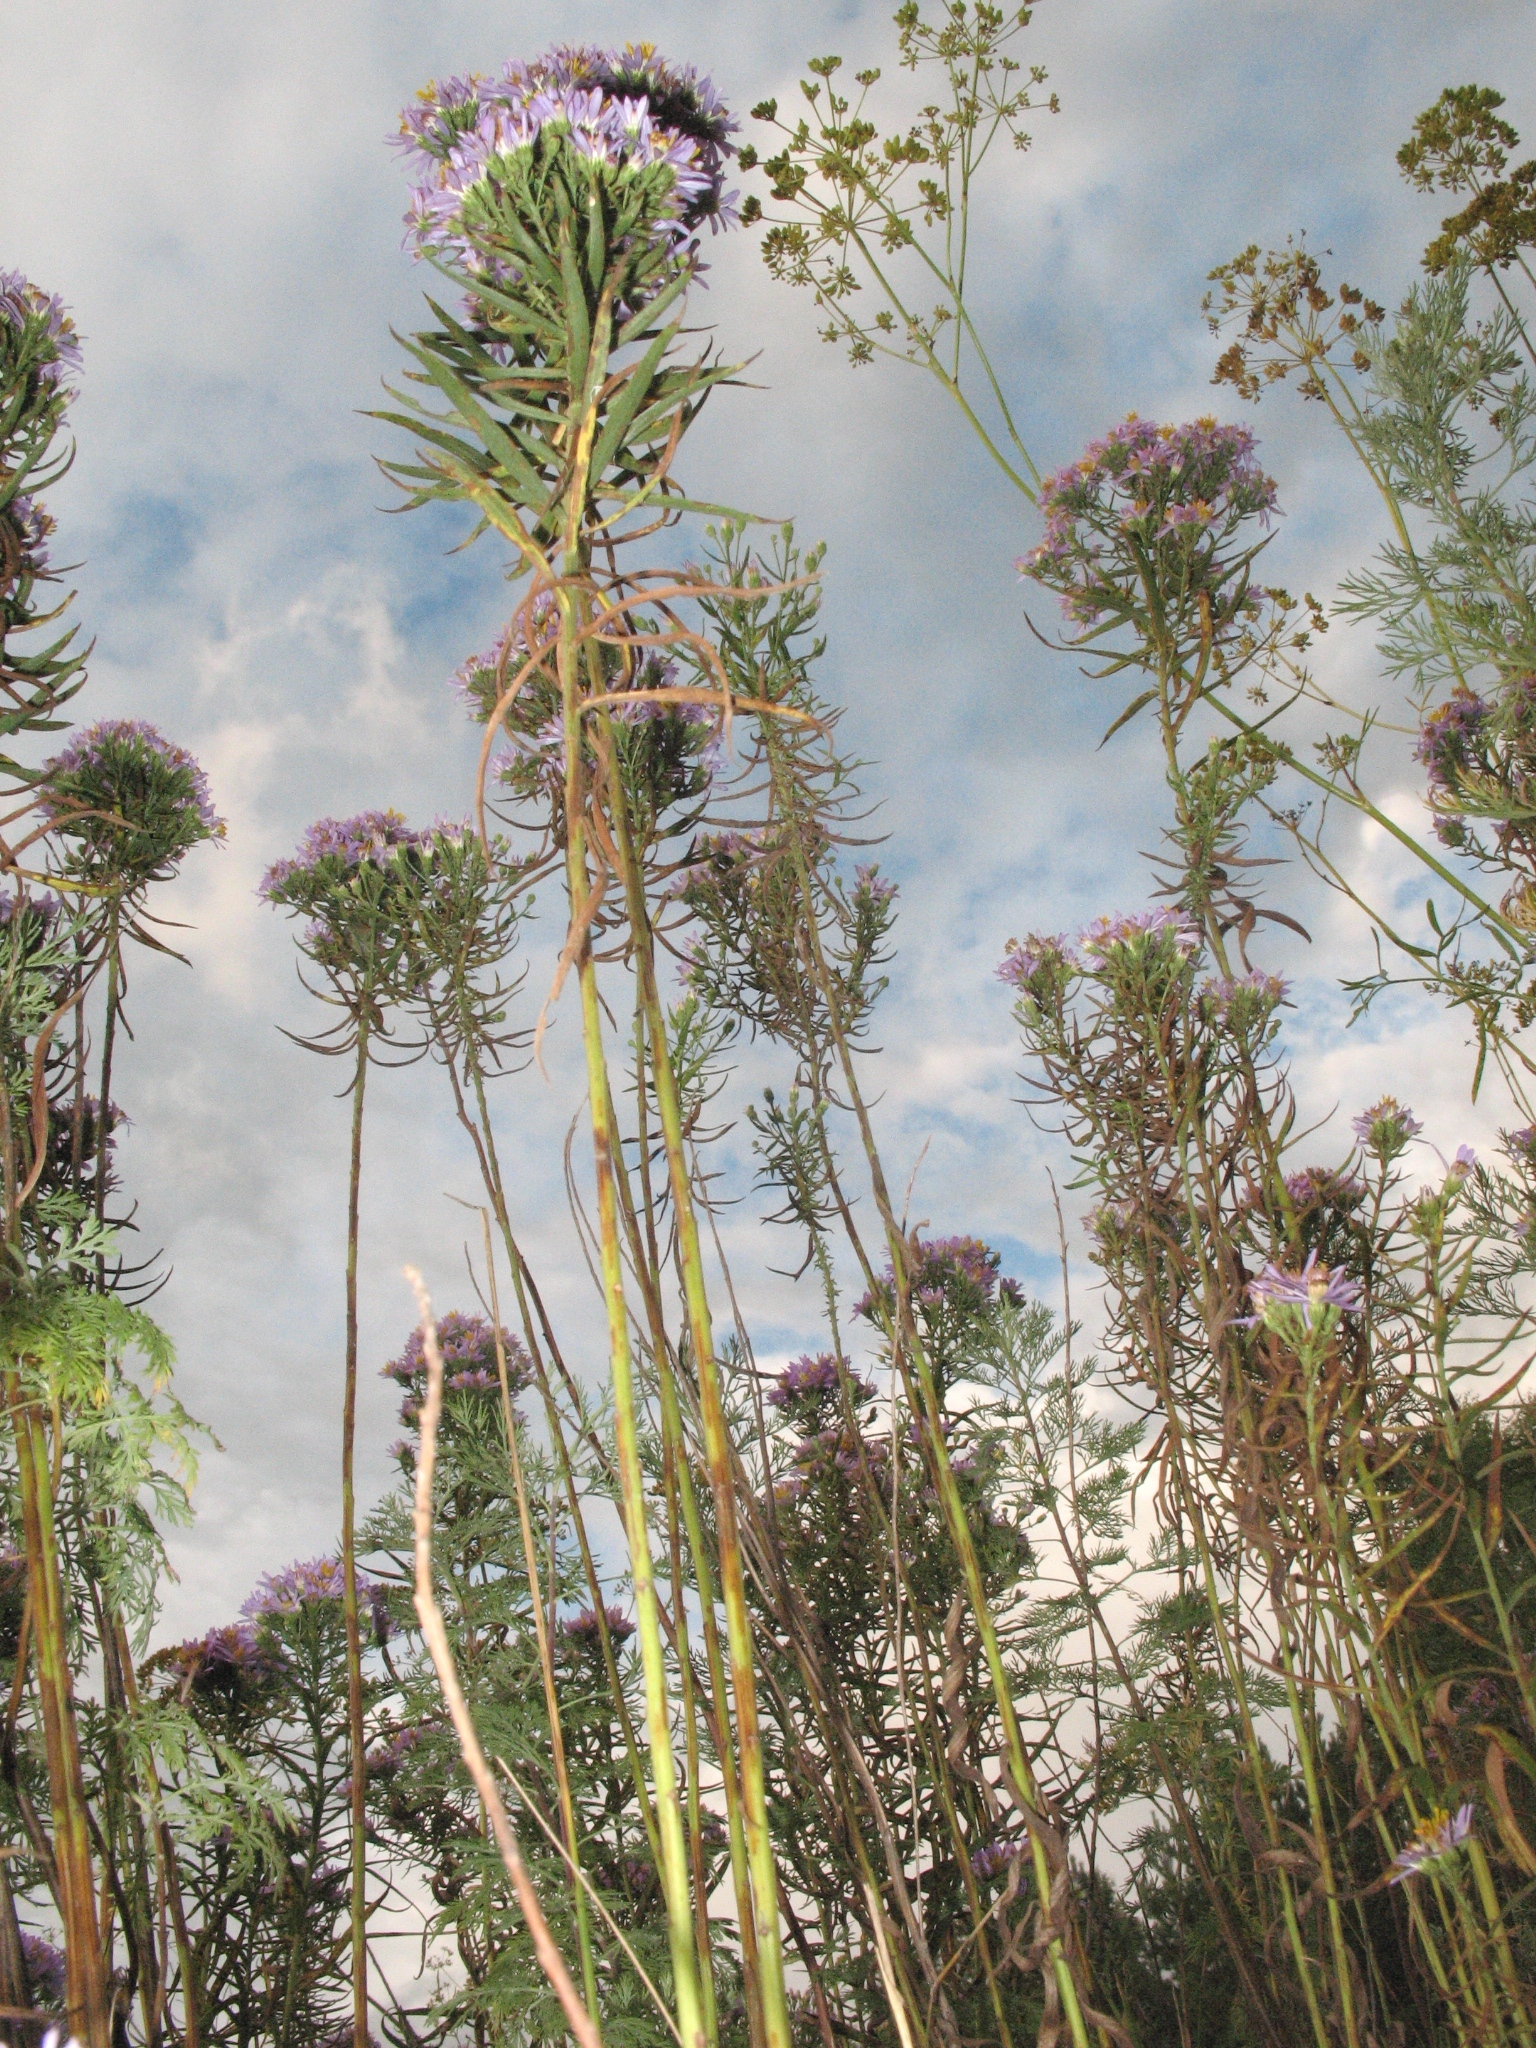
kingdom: Plantae
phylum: Tracheophyta
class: Magnoliopsida
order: Asterales
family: Asteraceae
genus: Galatella
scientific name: Galatella sedifolia
